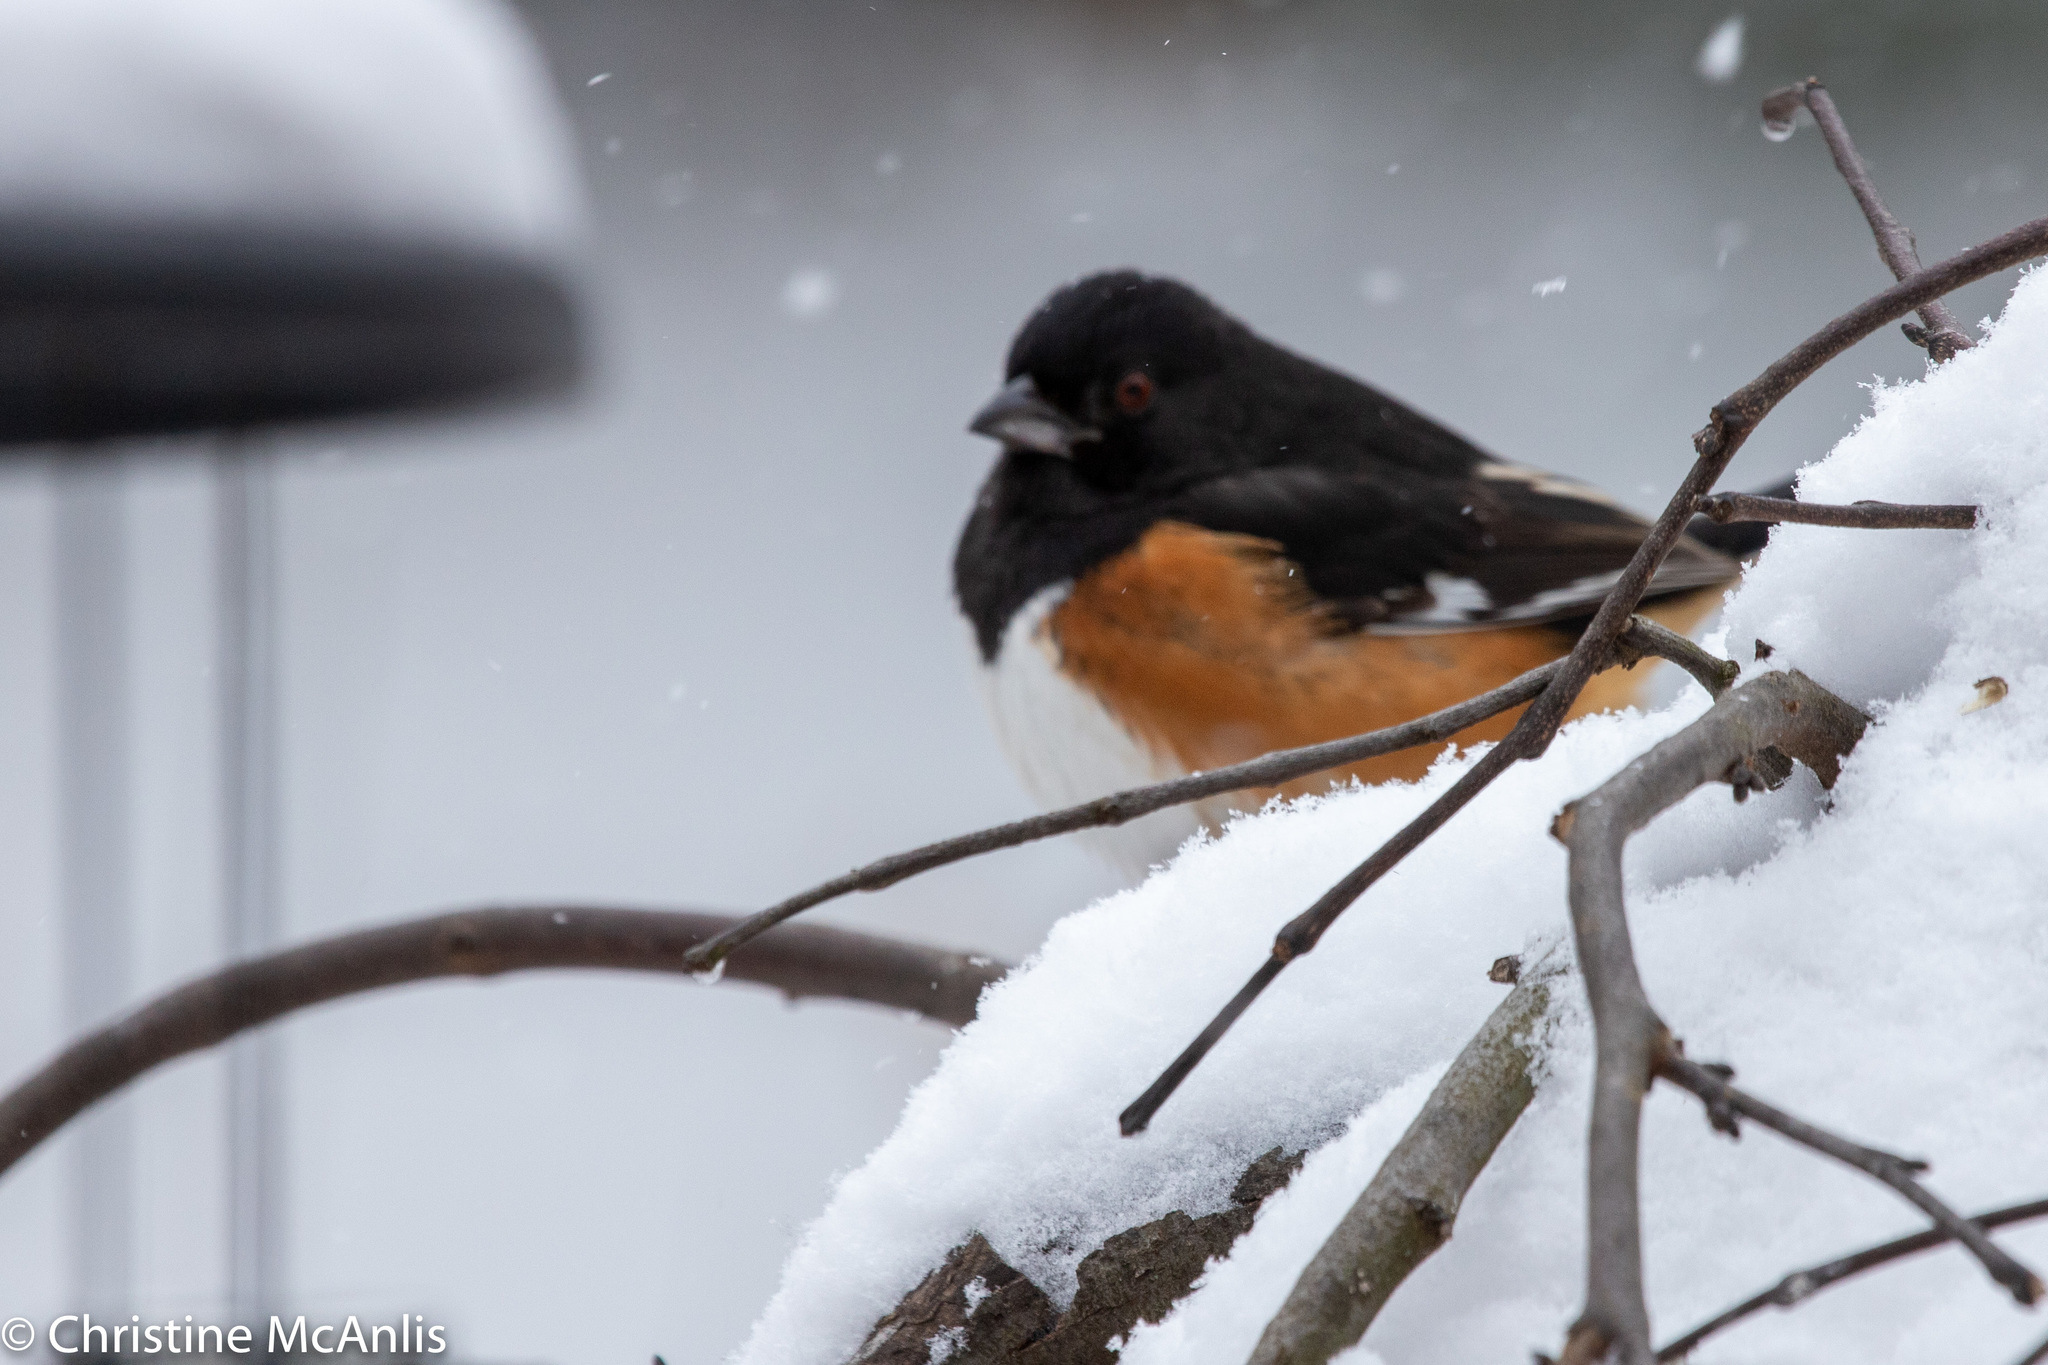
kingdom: Animalia
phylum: Chordata
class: Aves
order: Passeriformes
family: Passerellidae
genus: Pipilo
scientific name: Pipilo erythrophthalmus
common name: Eastern towhee
